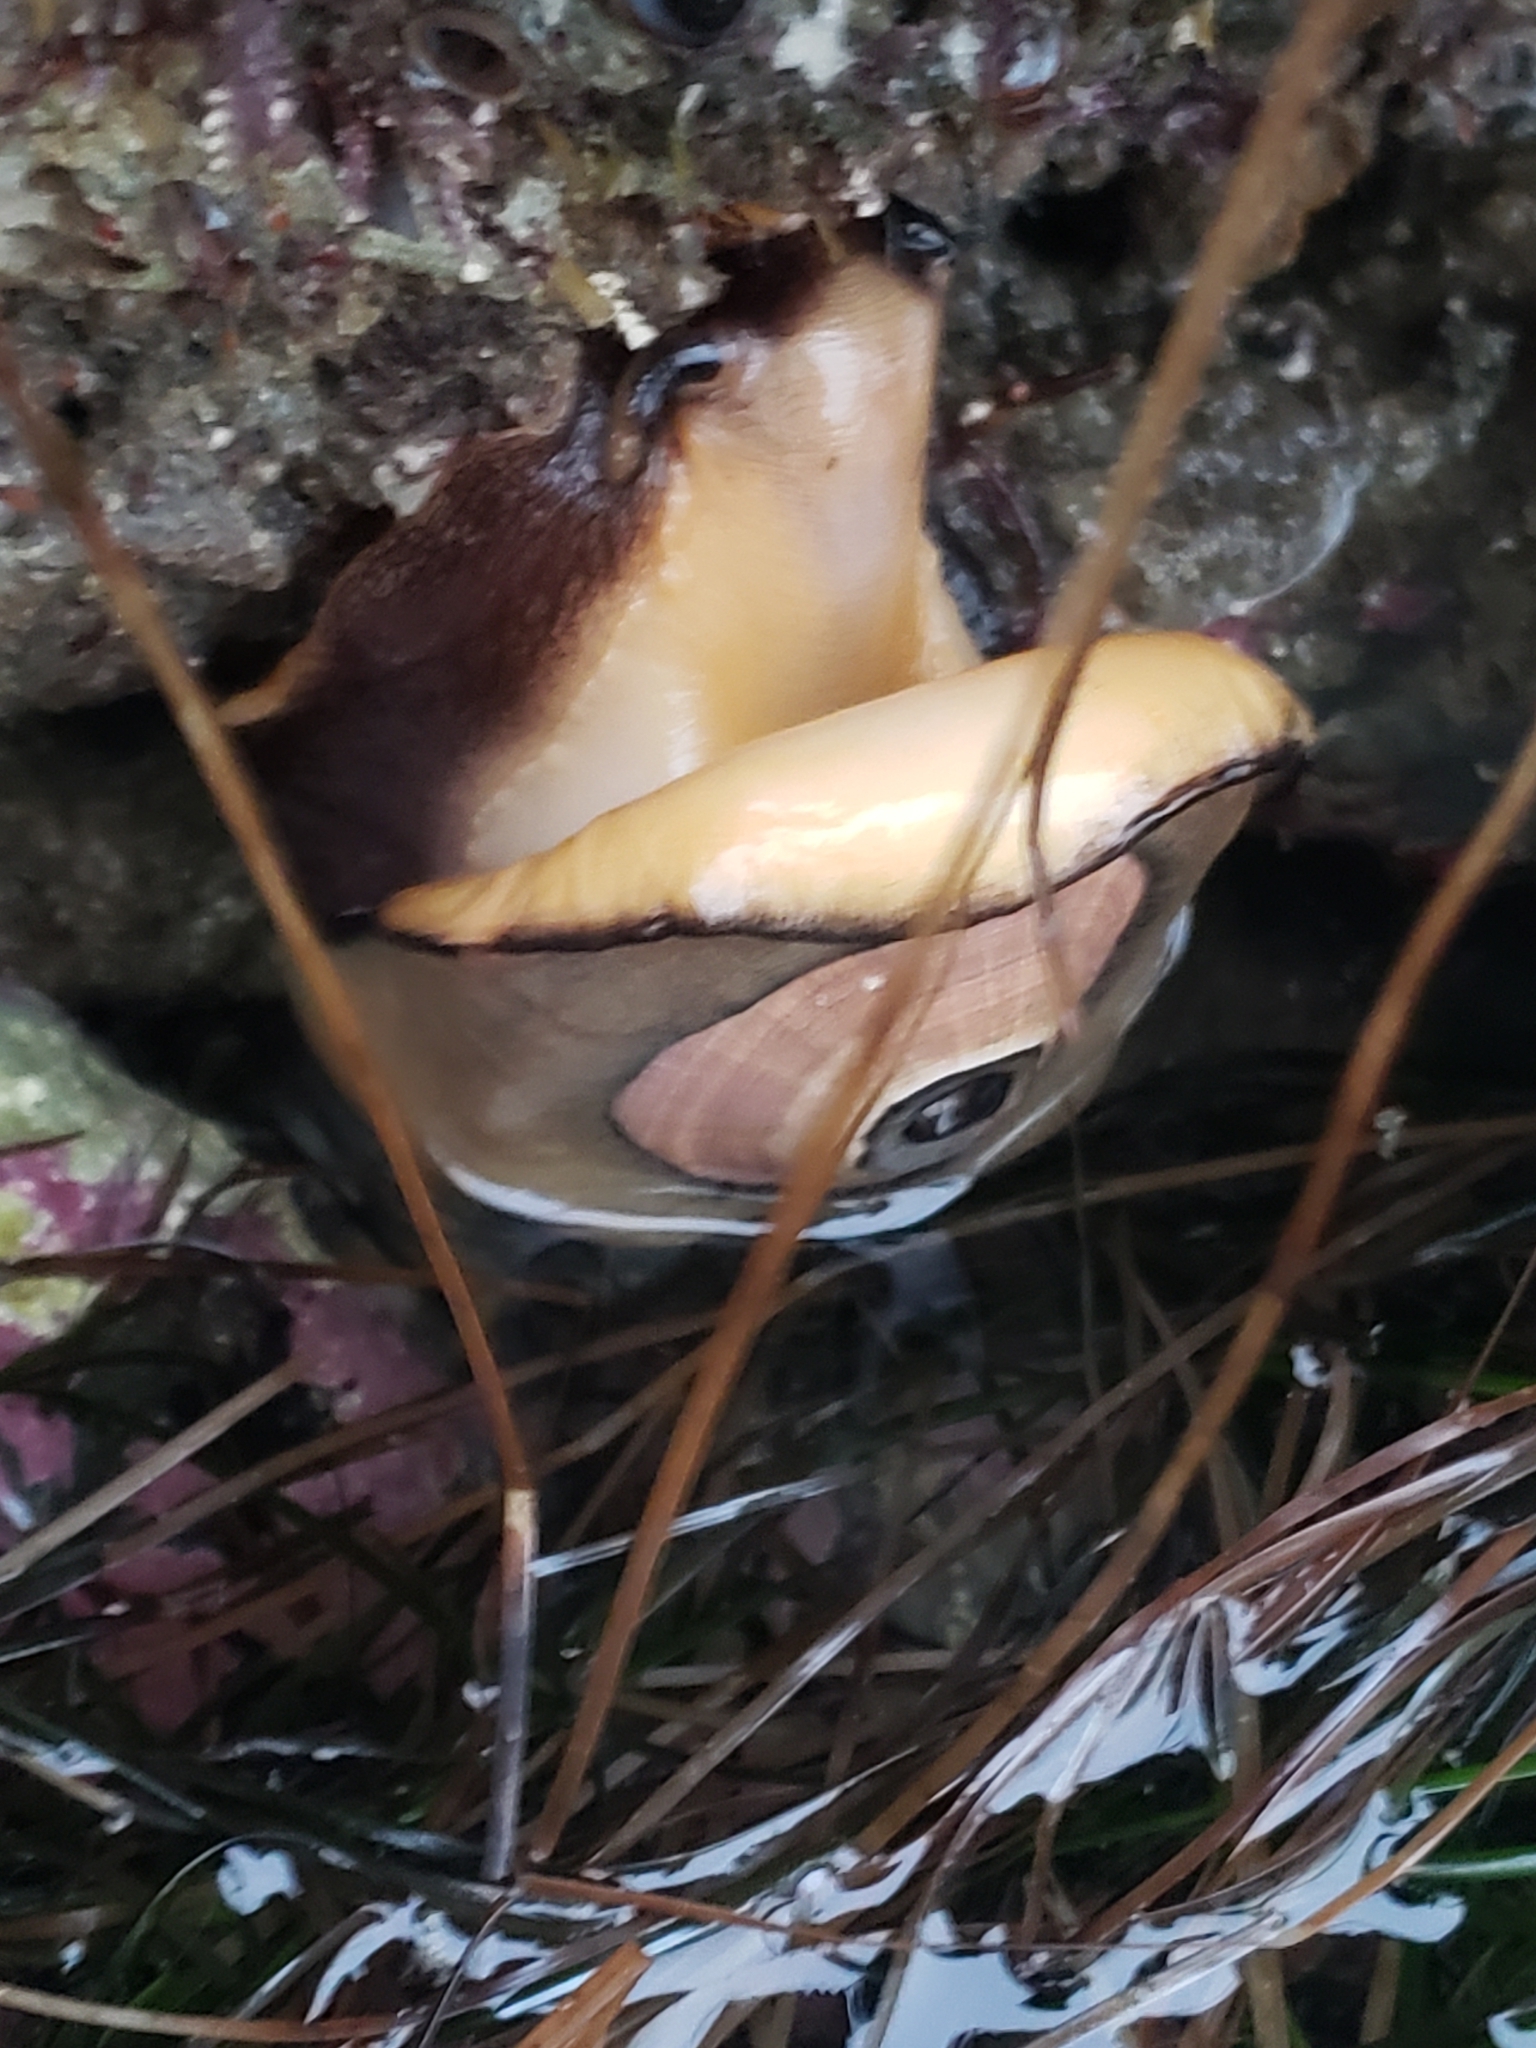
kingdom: Animalia
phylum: Mollusca
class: Gastropoda
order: Lepetellida
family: Fissurellidae
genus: Megathura
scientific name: Megathura crenulata
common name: Giant keyhole limpet
